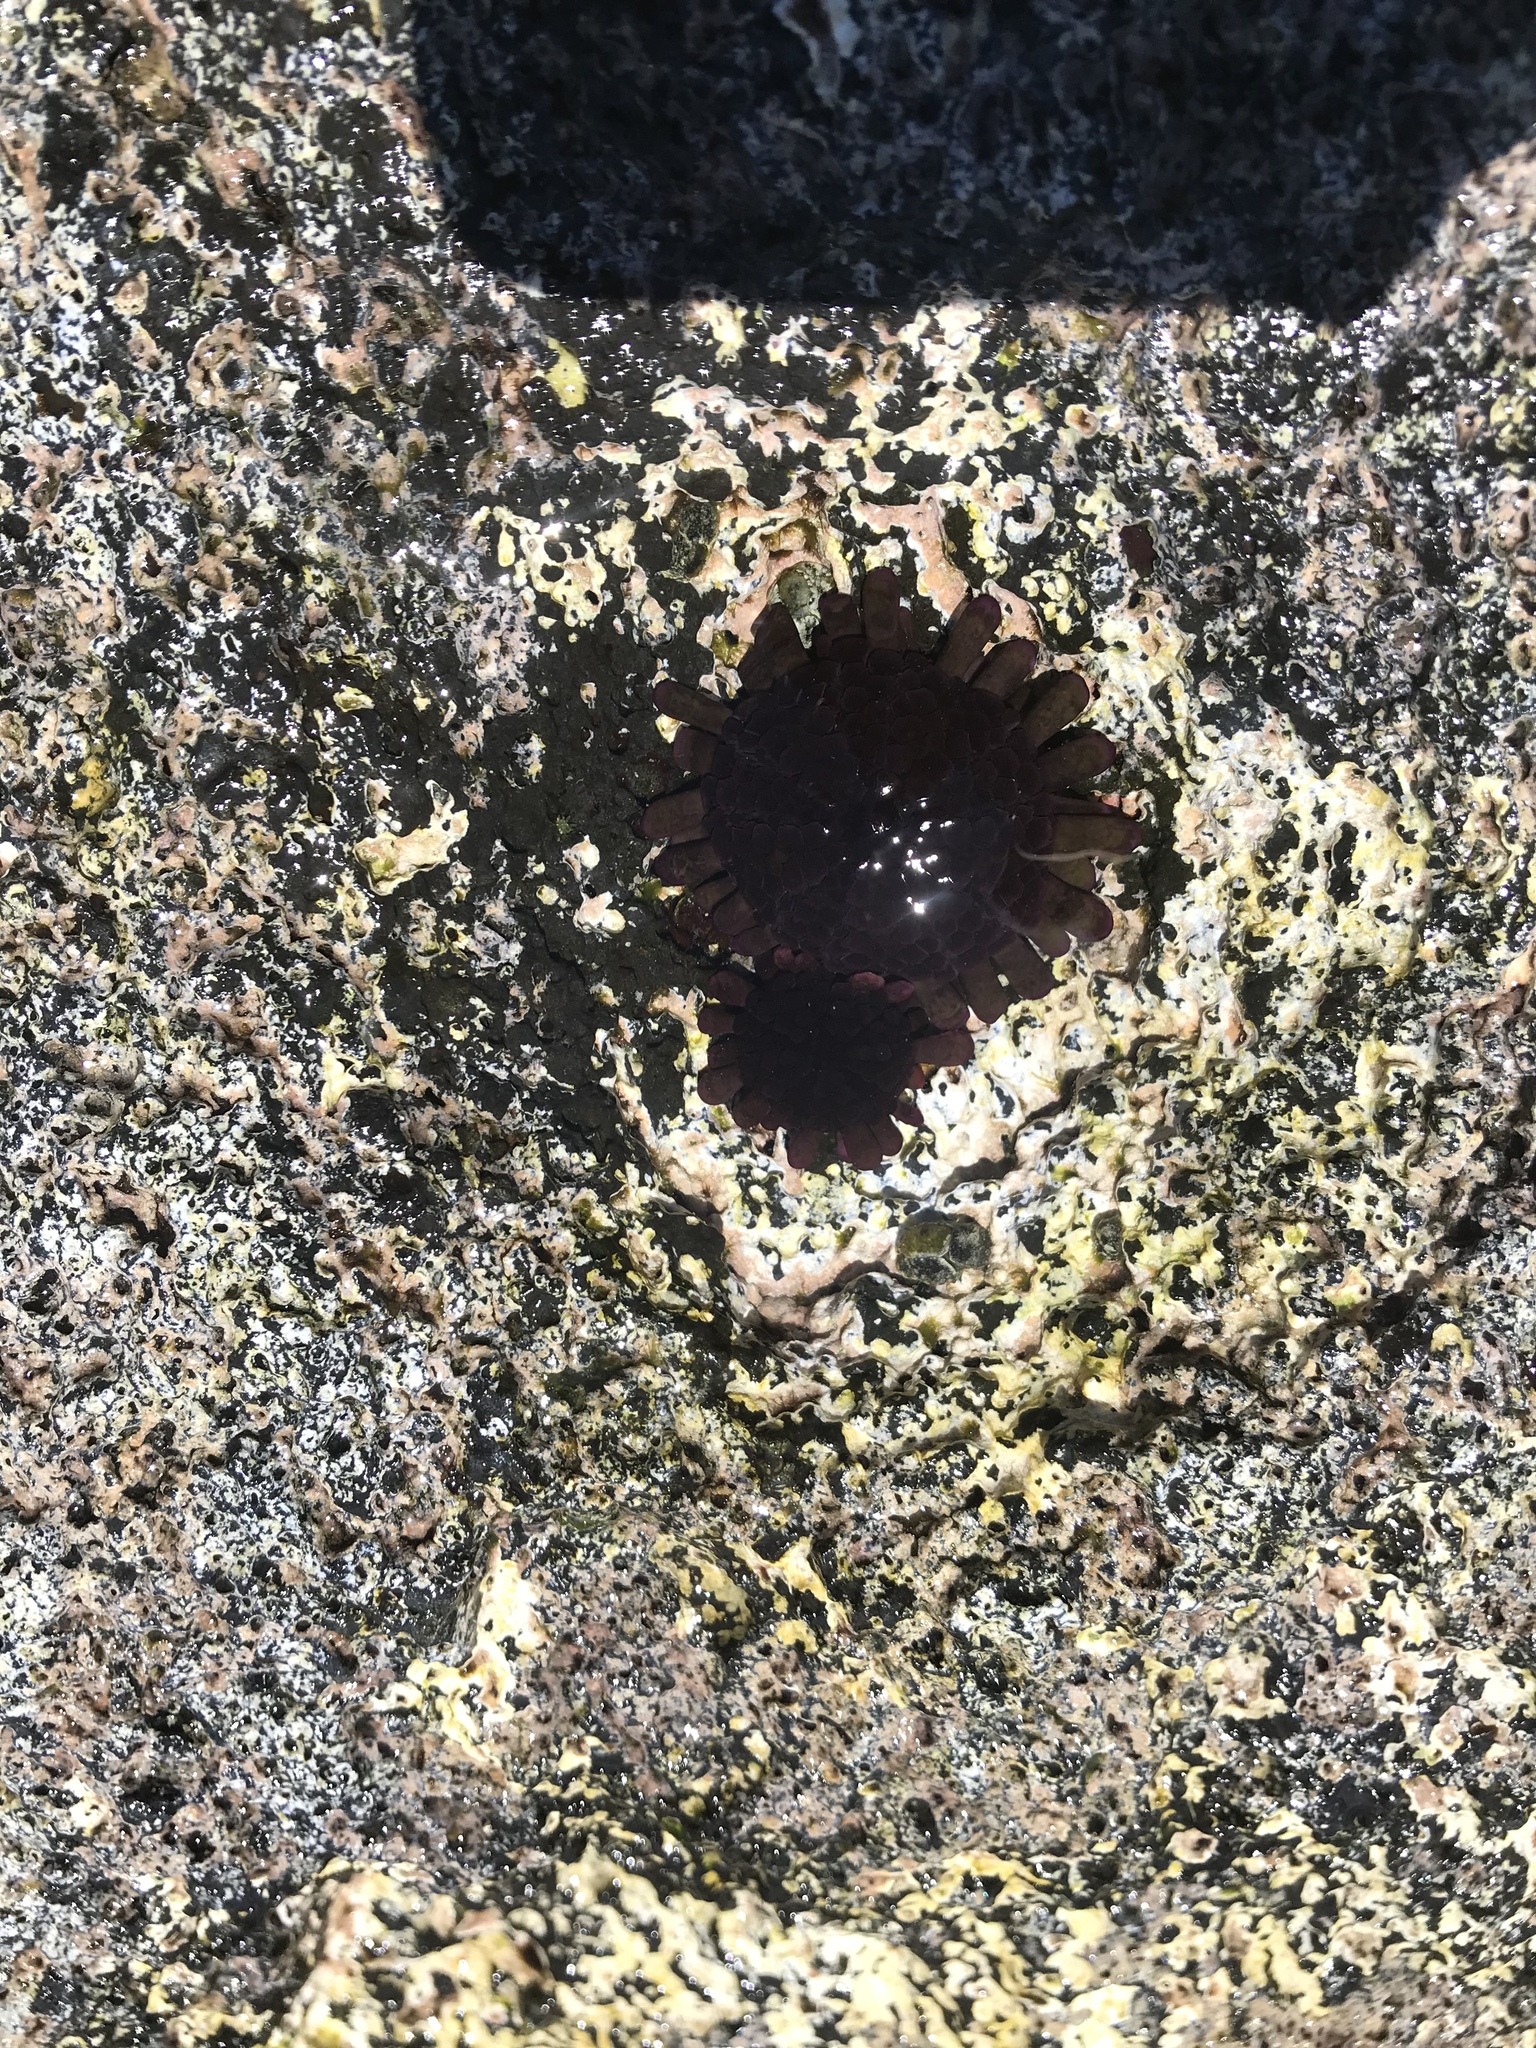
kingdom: Animalia
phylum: Echinodermata
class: Echinoidea
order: Camarodonta
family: Echinometridae
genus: Colobocentrotus
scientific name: Colobocentrotus atratus
